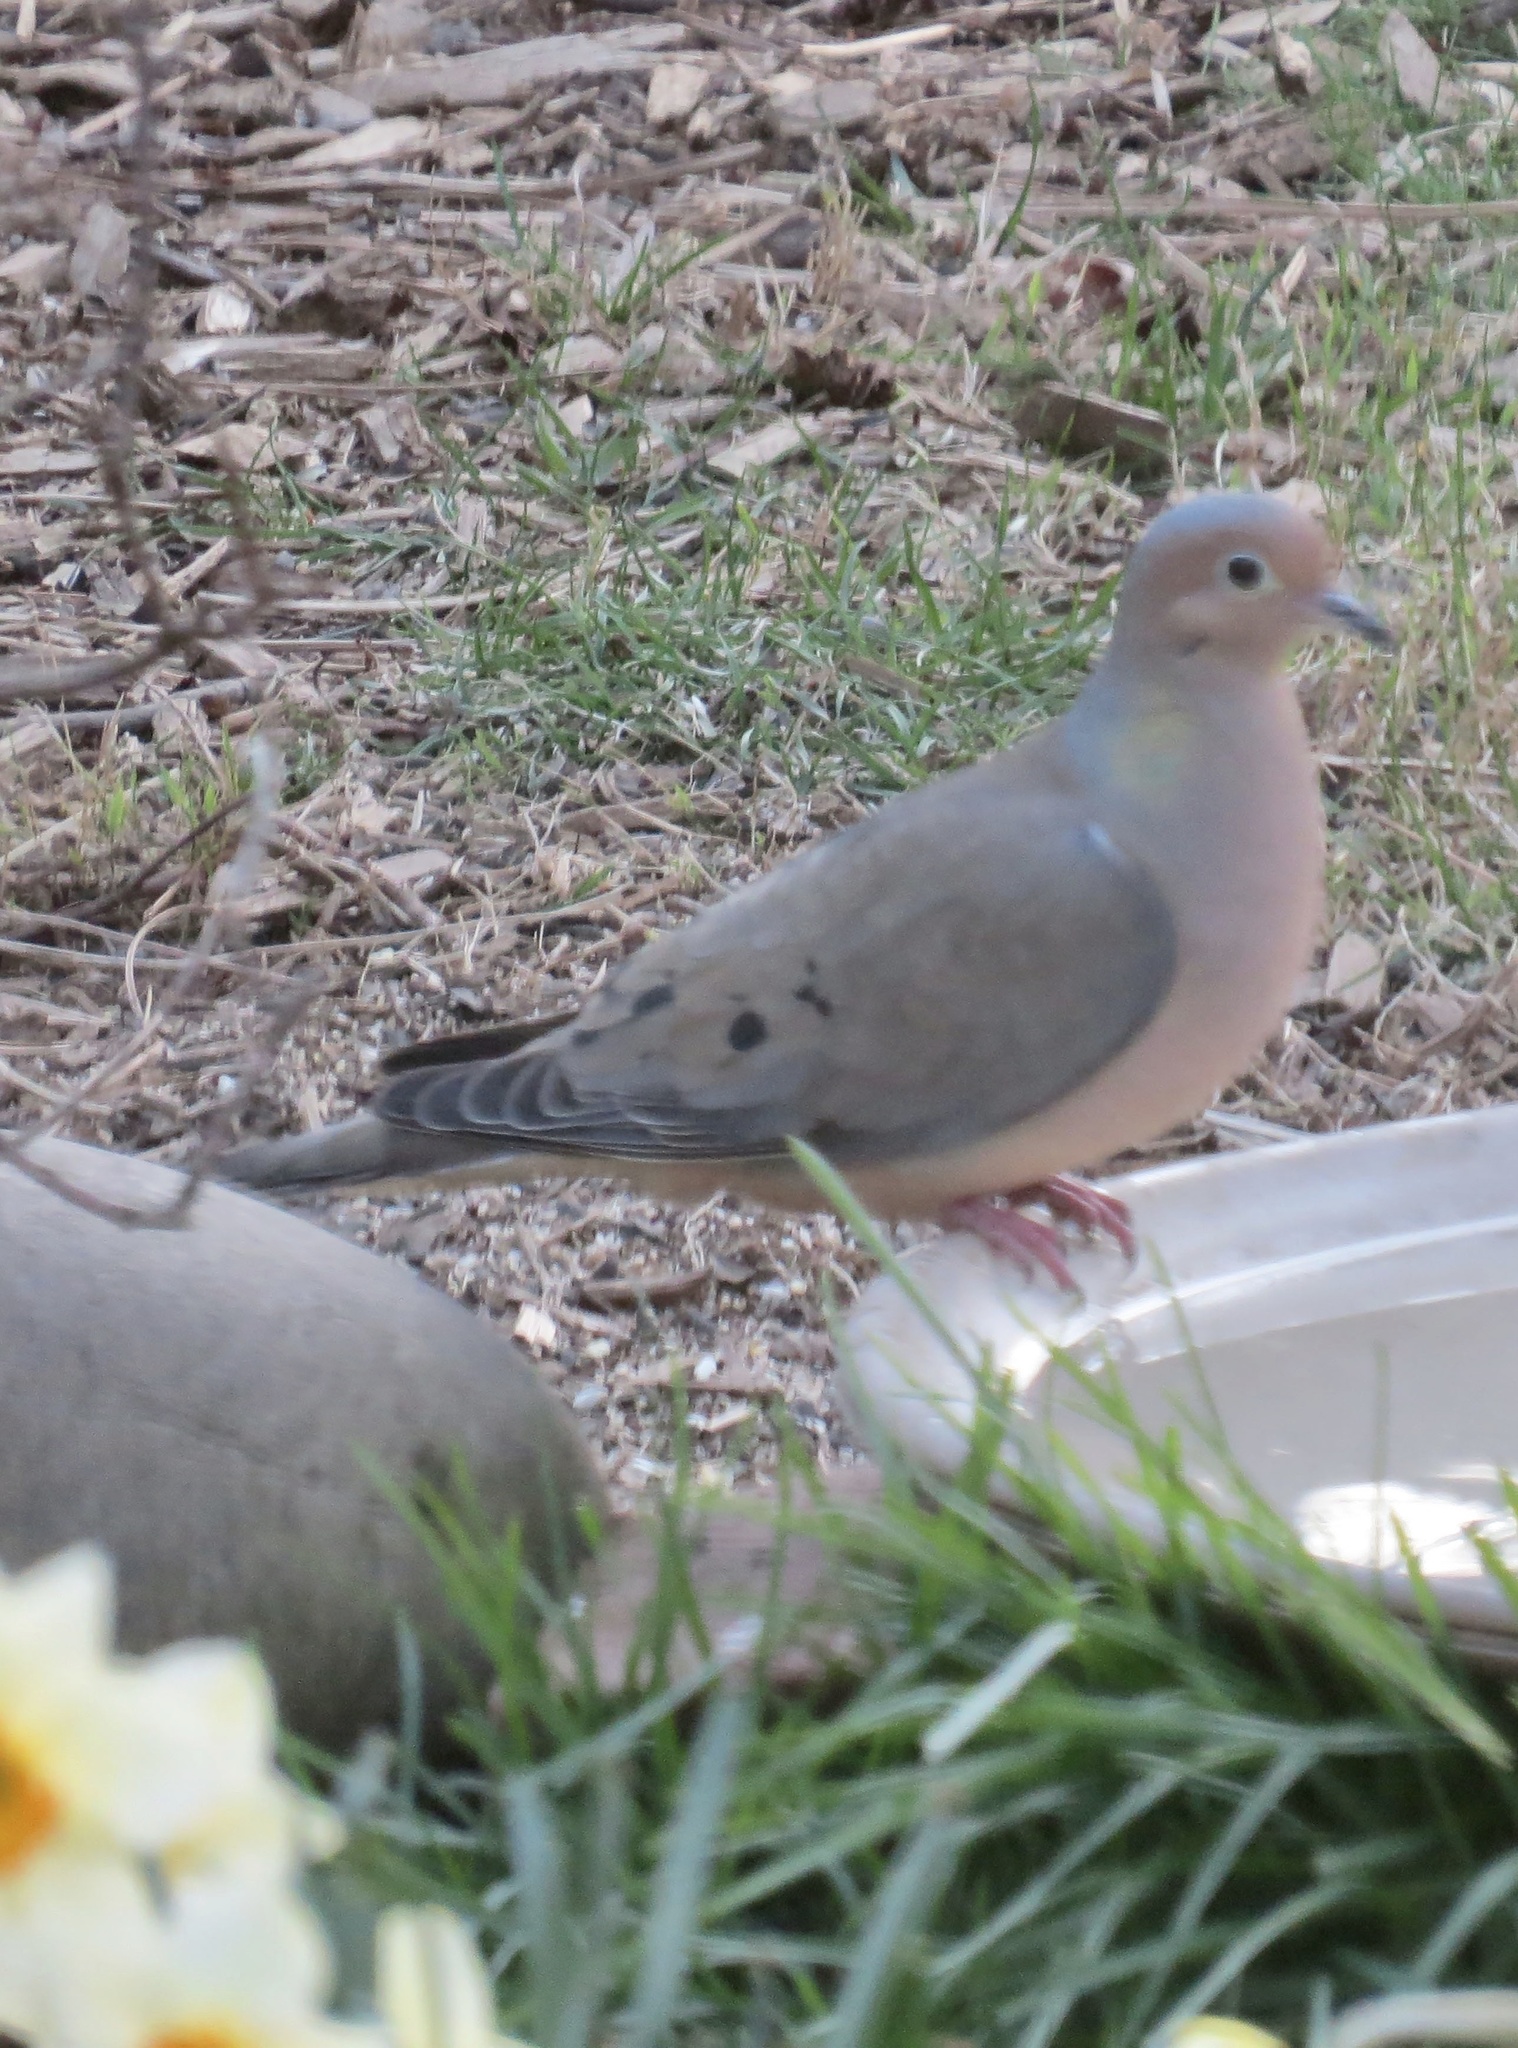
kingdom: Animalia
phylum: Chordata
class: Aves
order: Columbiformes
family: Columbidae
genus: Zenaida
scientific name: Zenaida macroura
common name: Mourning dove
